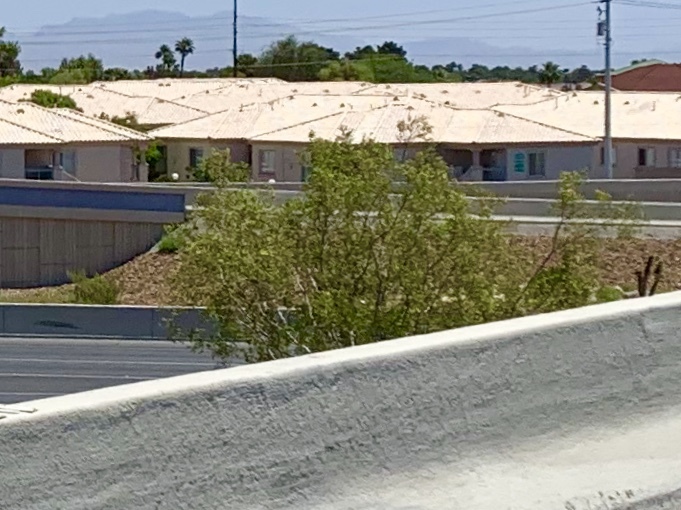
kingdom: Plantae
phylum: Tracheophyta
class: Magnoliopsida
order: Zygophyllales
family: Zygophyllaceae
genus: Larrea
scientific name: Larrea tridentata
